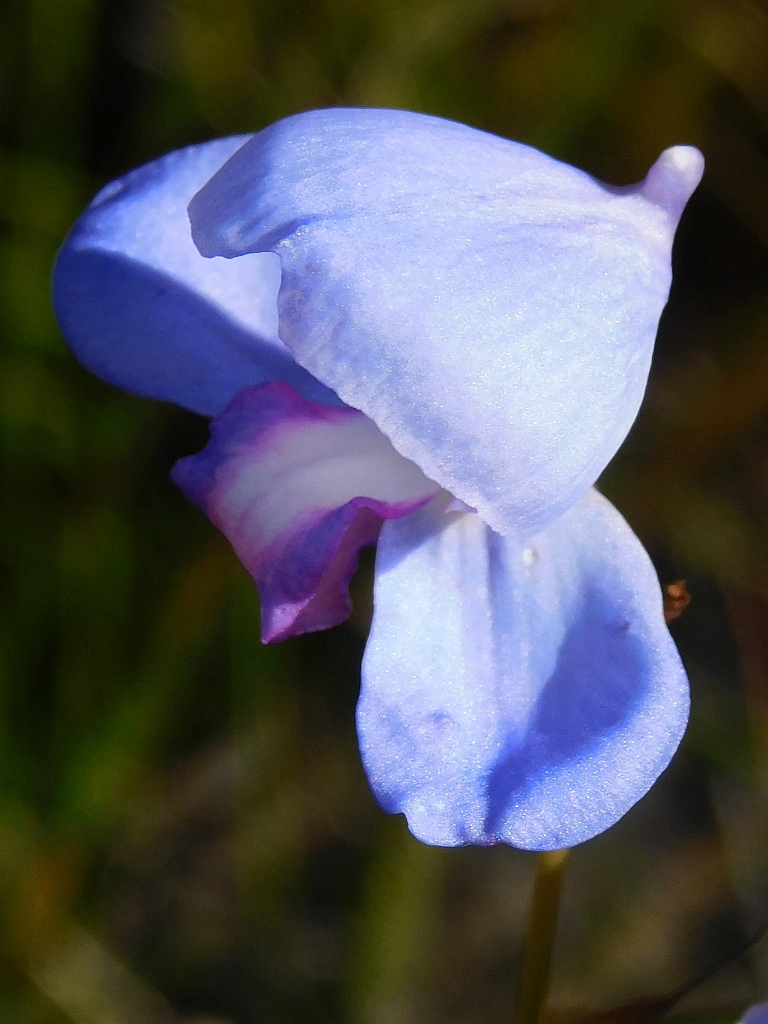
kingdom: Plantae
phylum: Tracheophyta
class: Liliopsida
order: Asparagales
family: Orchidaceae
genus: Disa
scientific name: Disa graminifolia
